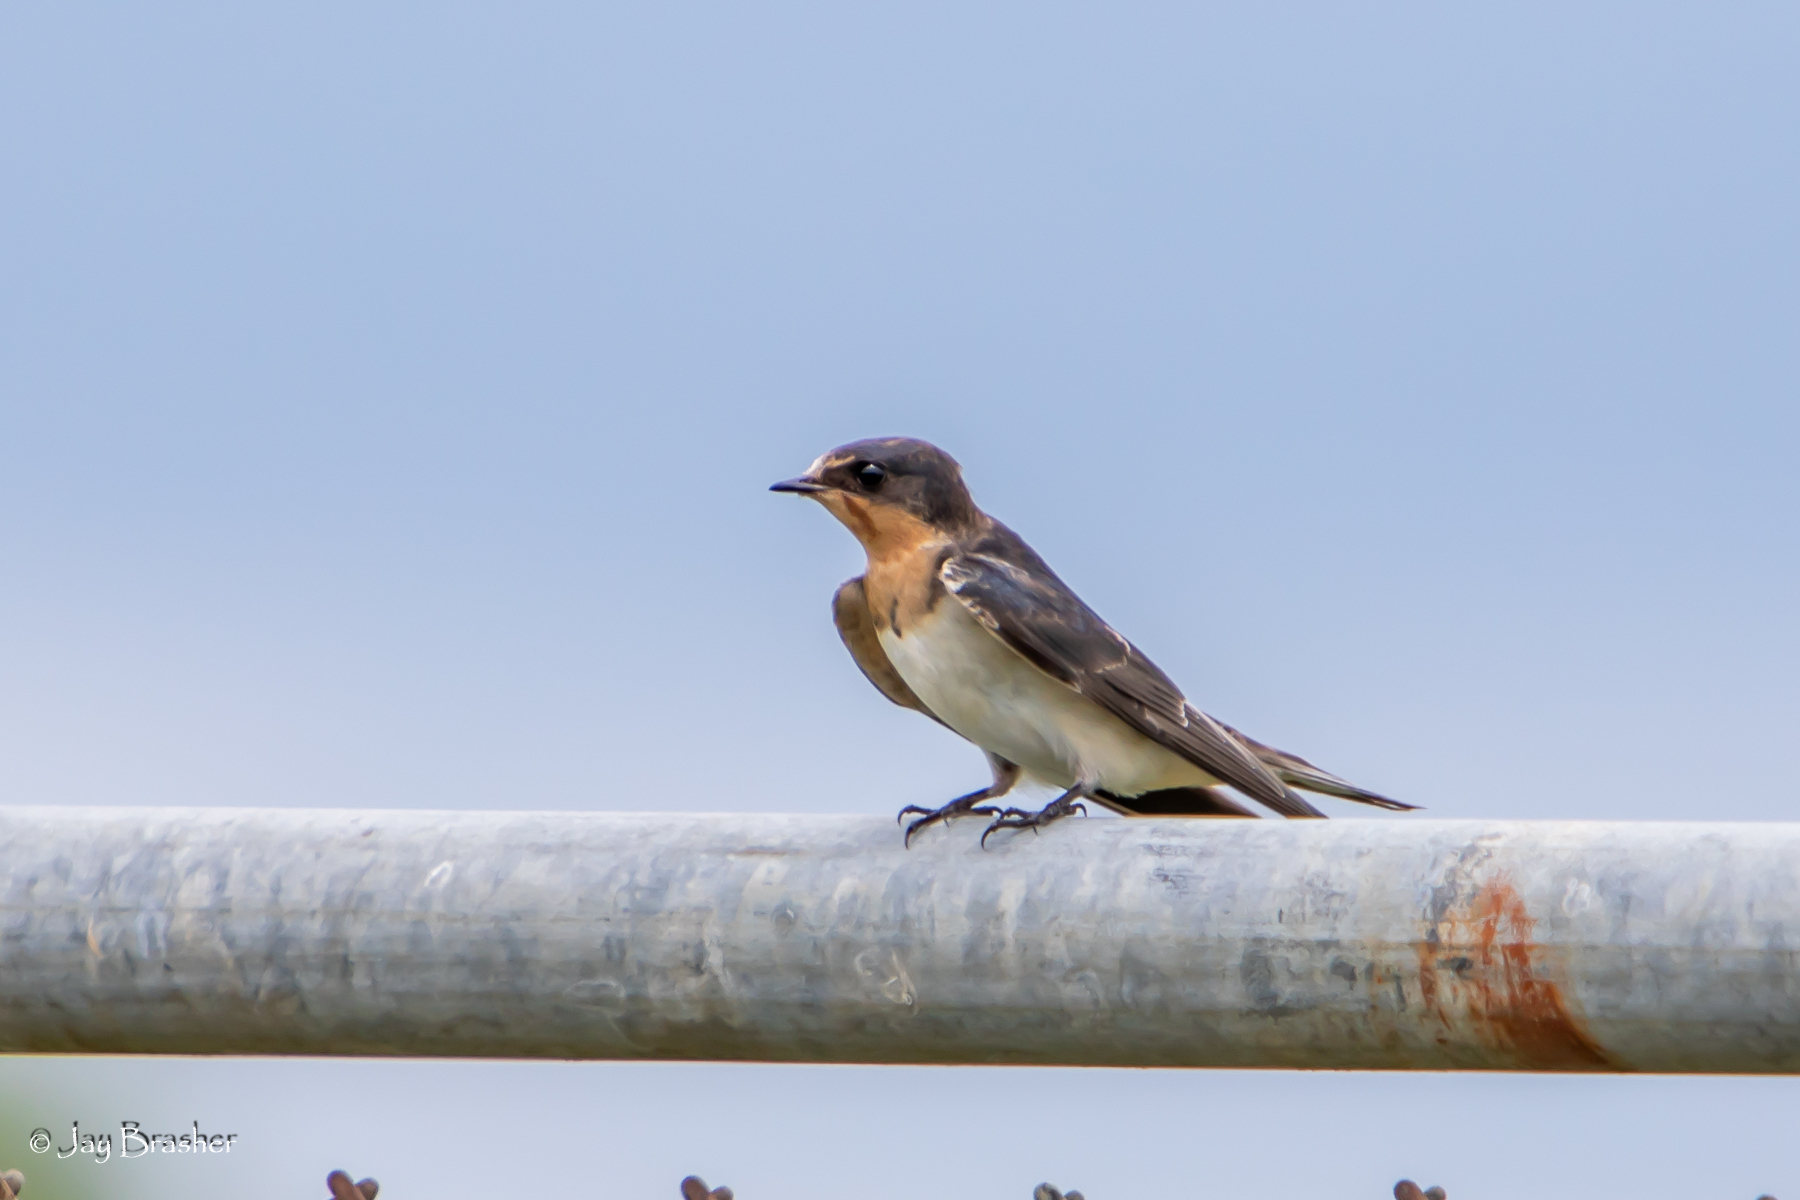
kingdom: Animalia
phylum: Chordata
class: Aves
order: Passeriformes
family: Hirundinidae
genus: Hirundo
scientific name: Hirundo rustica
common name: Barn swallow
